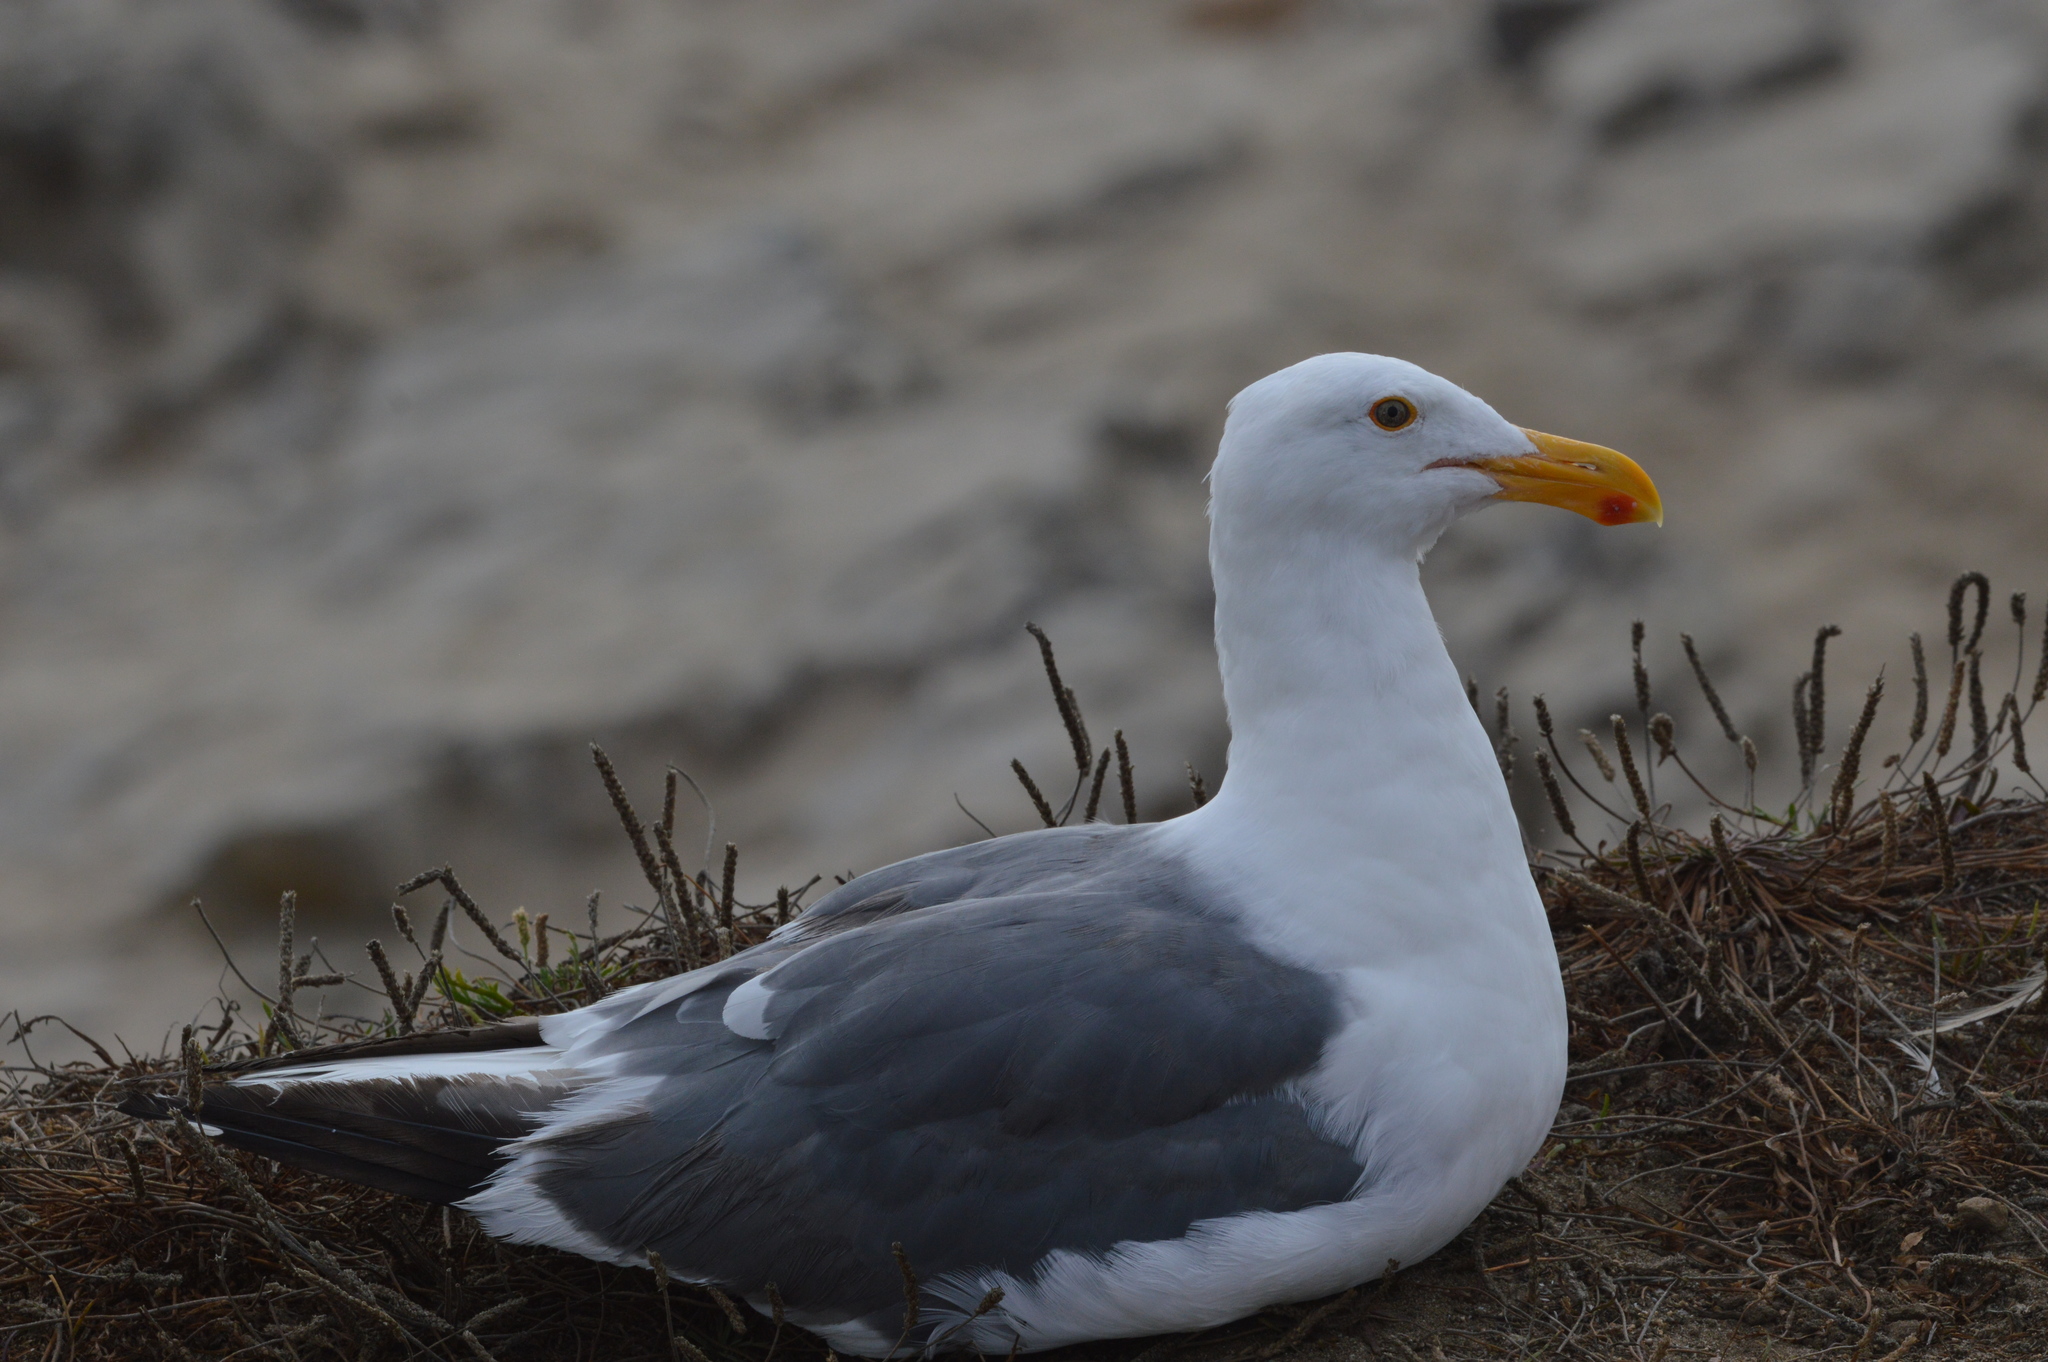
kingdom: Animalia
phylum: Chordata
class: Aves
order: Charadriiformes
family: Laridae
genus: Larus
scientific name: Larus occidentalis
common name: Western gull
